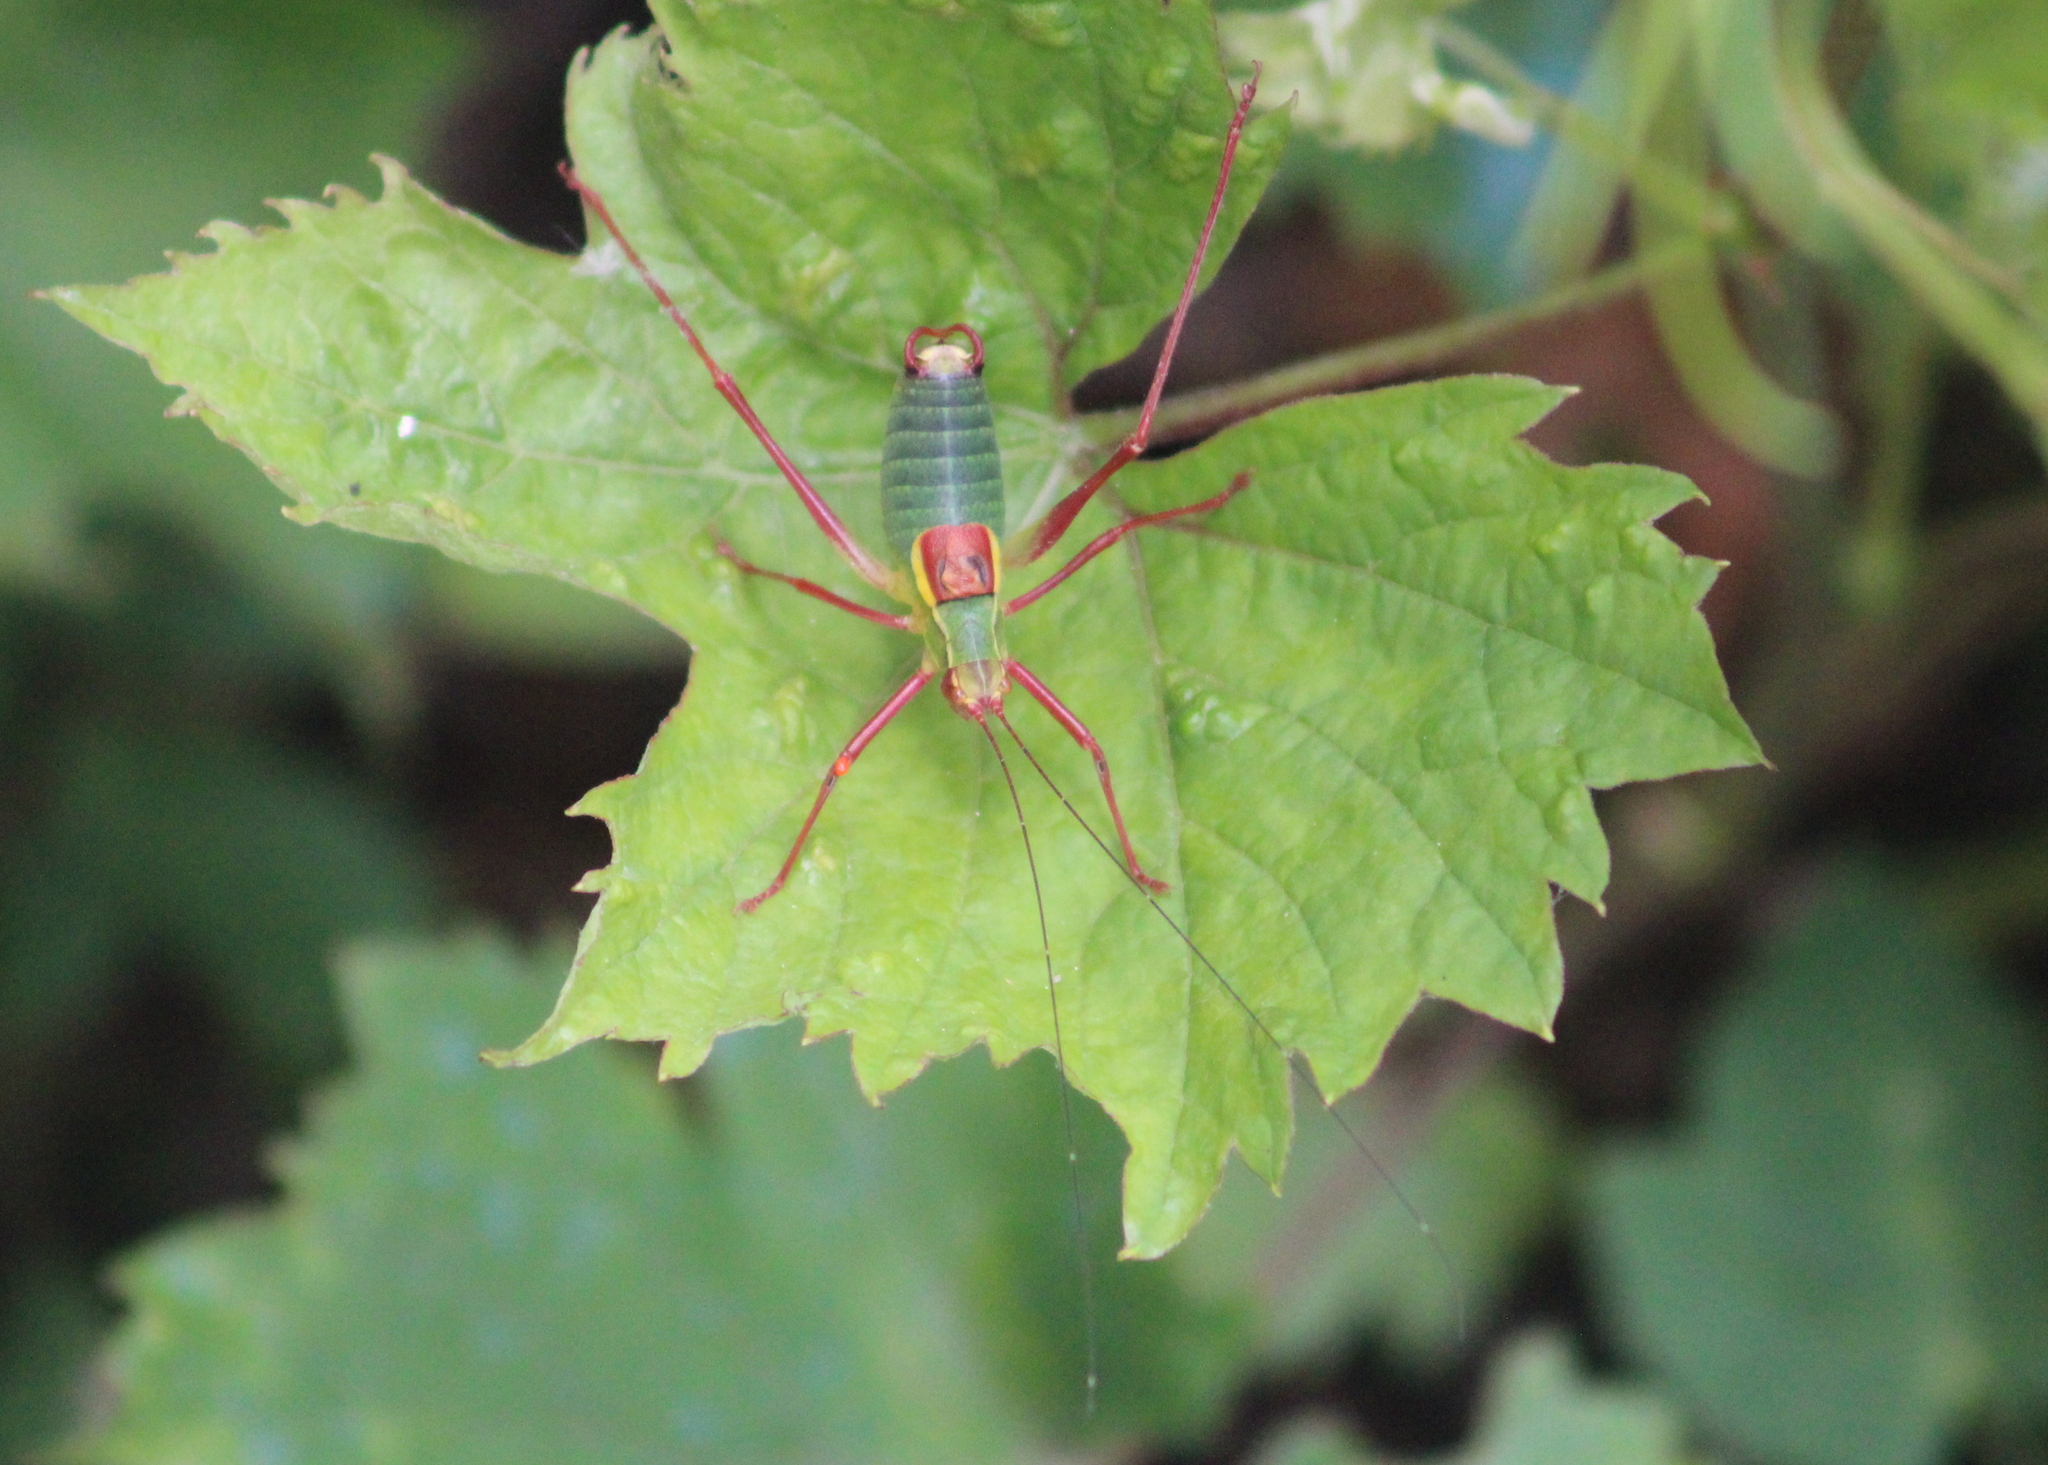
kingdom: Animalia
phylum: Arthropoda
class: Insecta
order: Orthoptera
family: Tettigoniidae
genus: Barbitistes
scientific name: Barbitistes serricauda
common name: Saw-tailed bush-cricket
